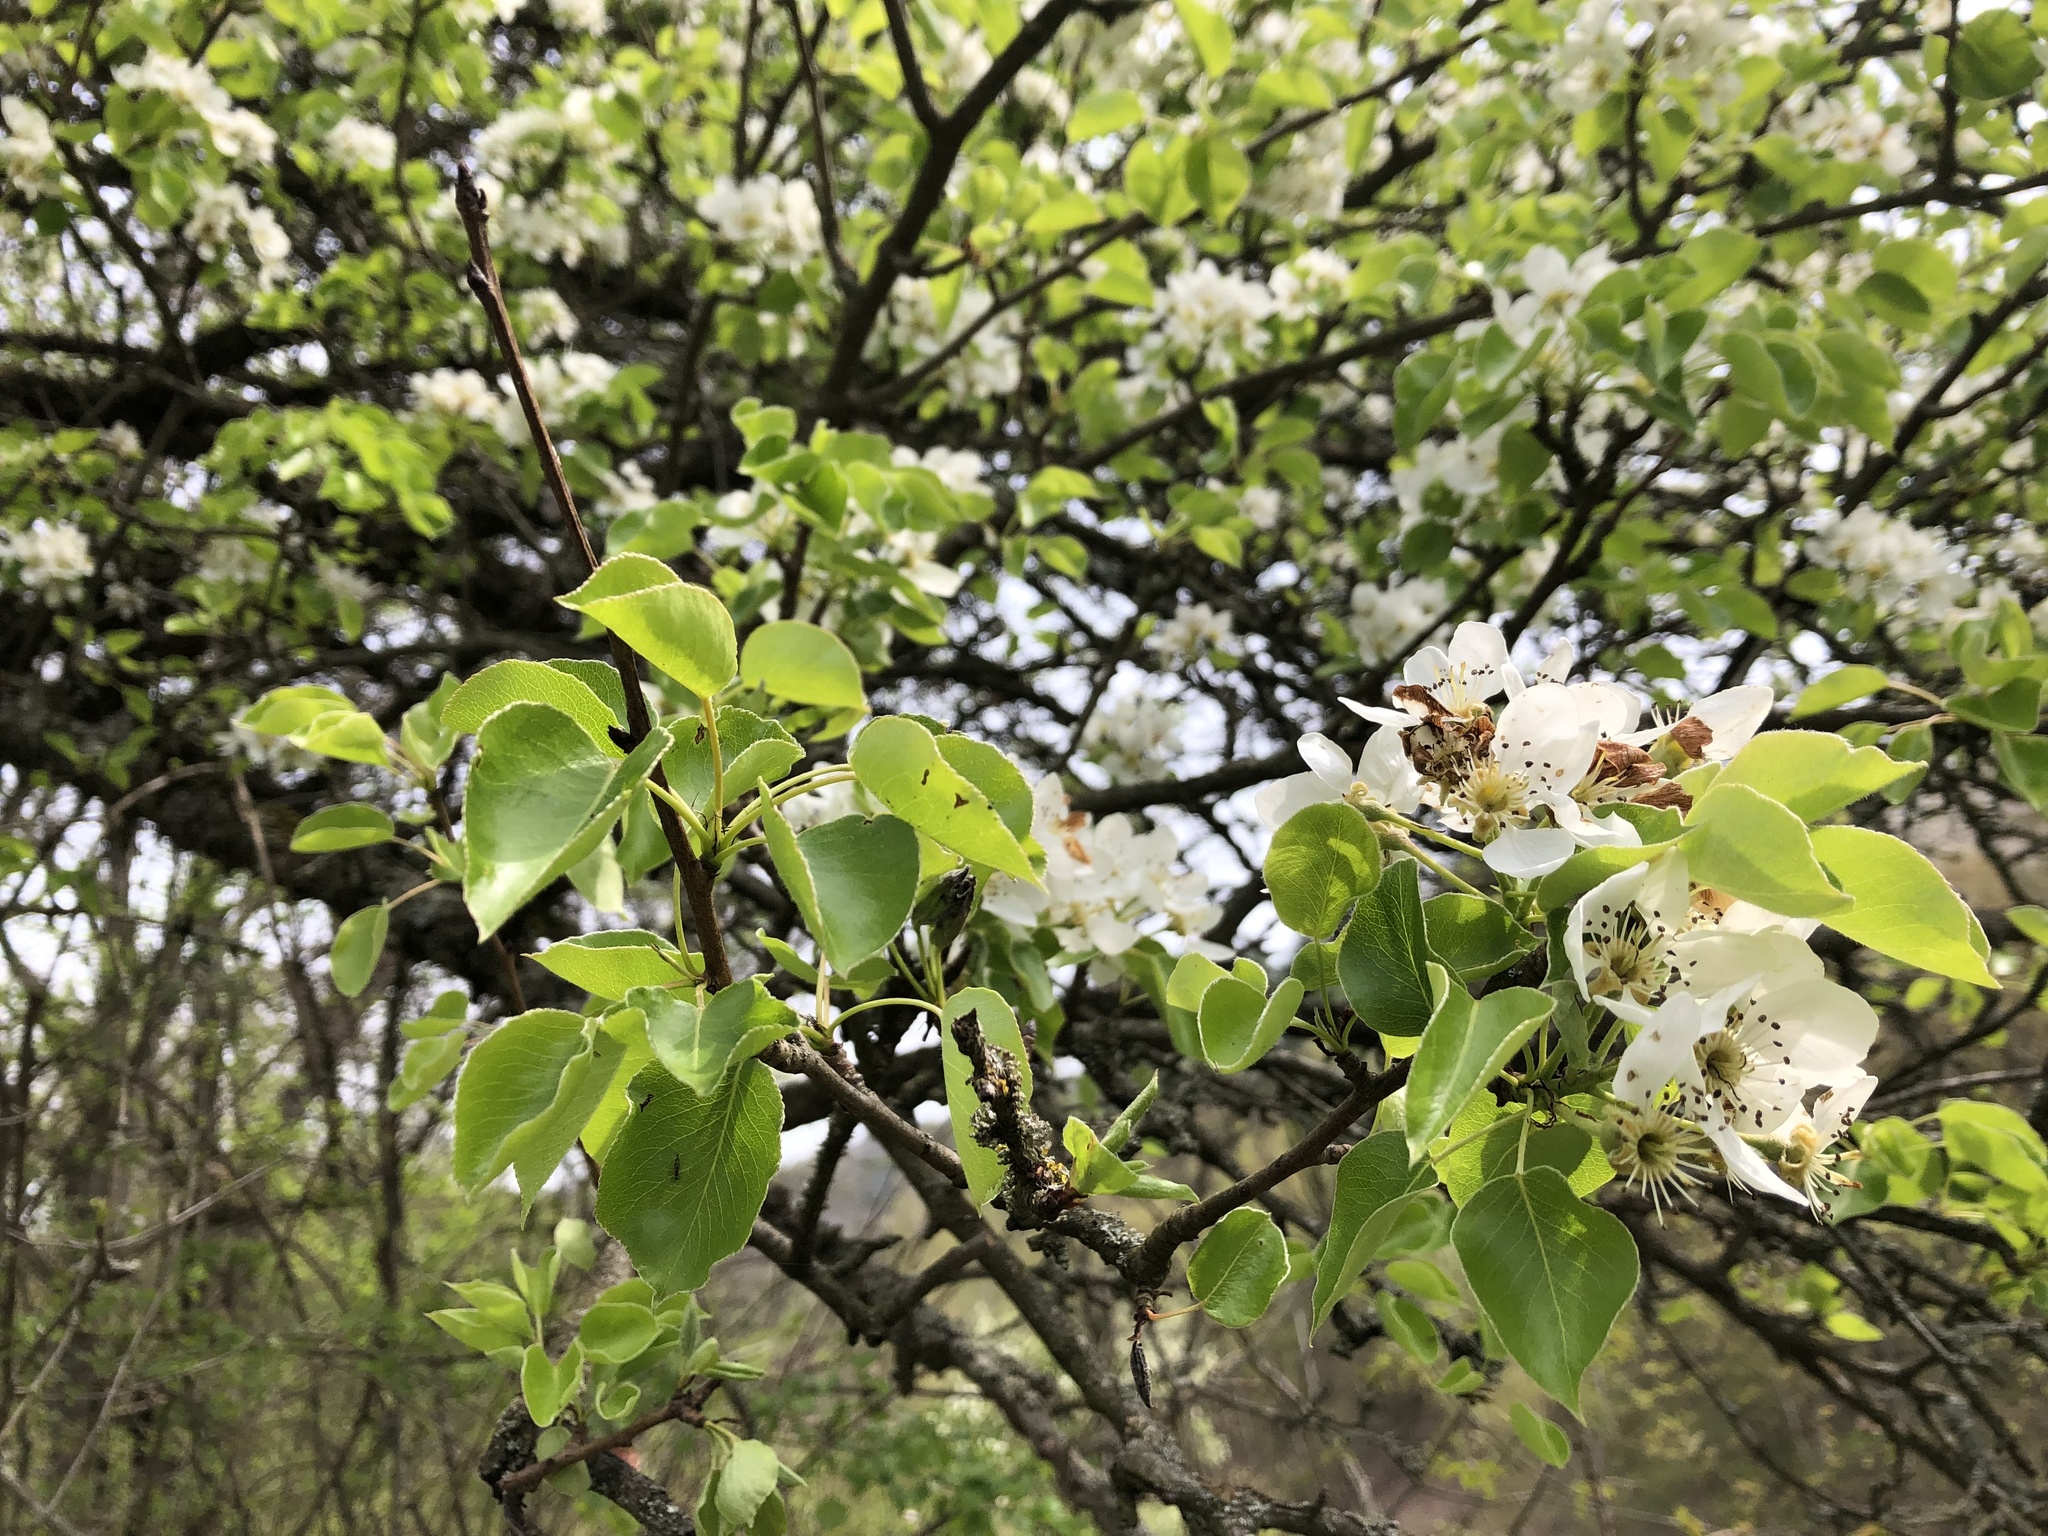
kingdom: Plantae
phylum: Tracheophyta
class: Magnoliopsida
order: Rosales
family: Rosaceae
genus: Pyrus
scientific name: Pyrus communis
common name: Pear
